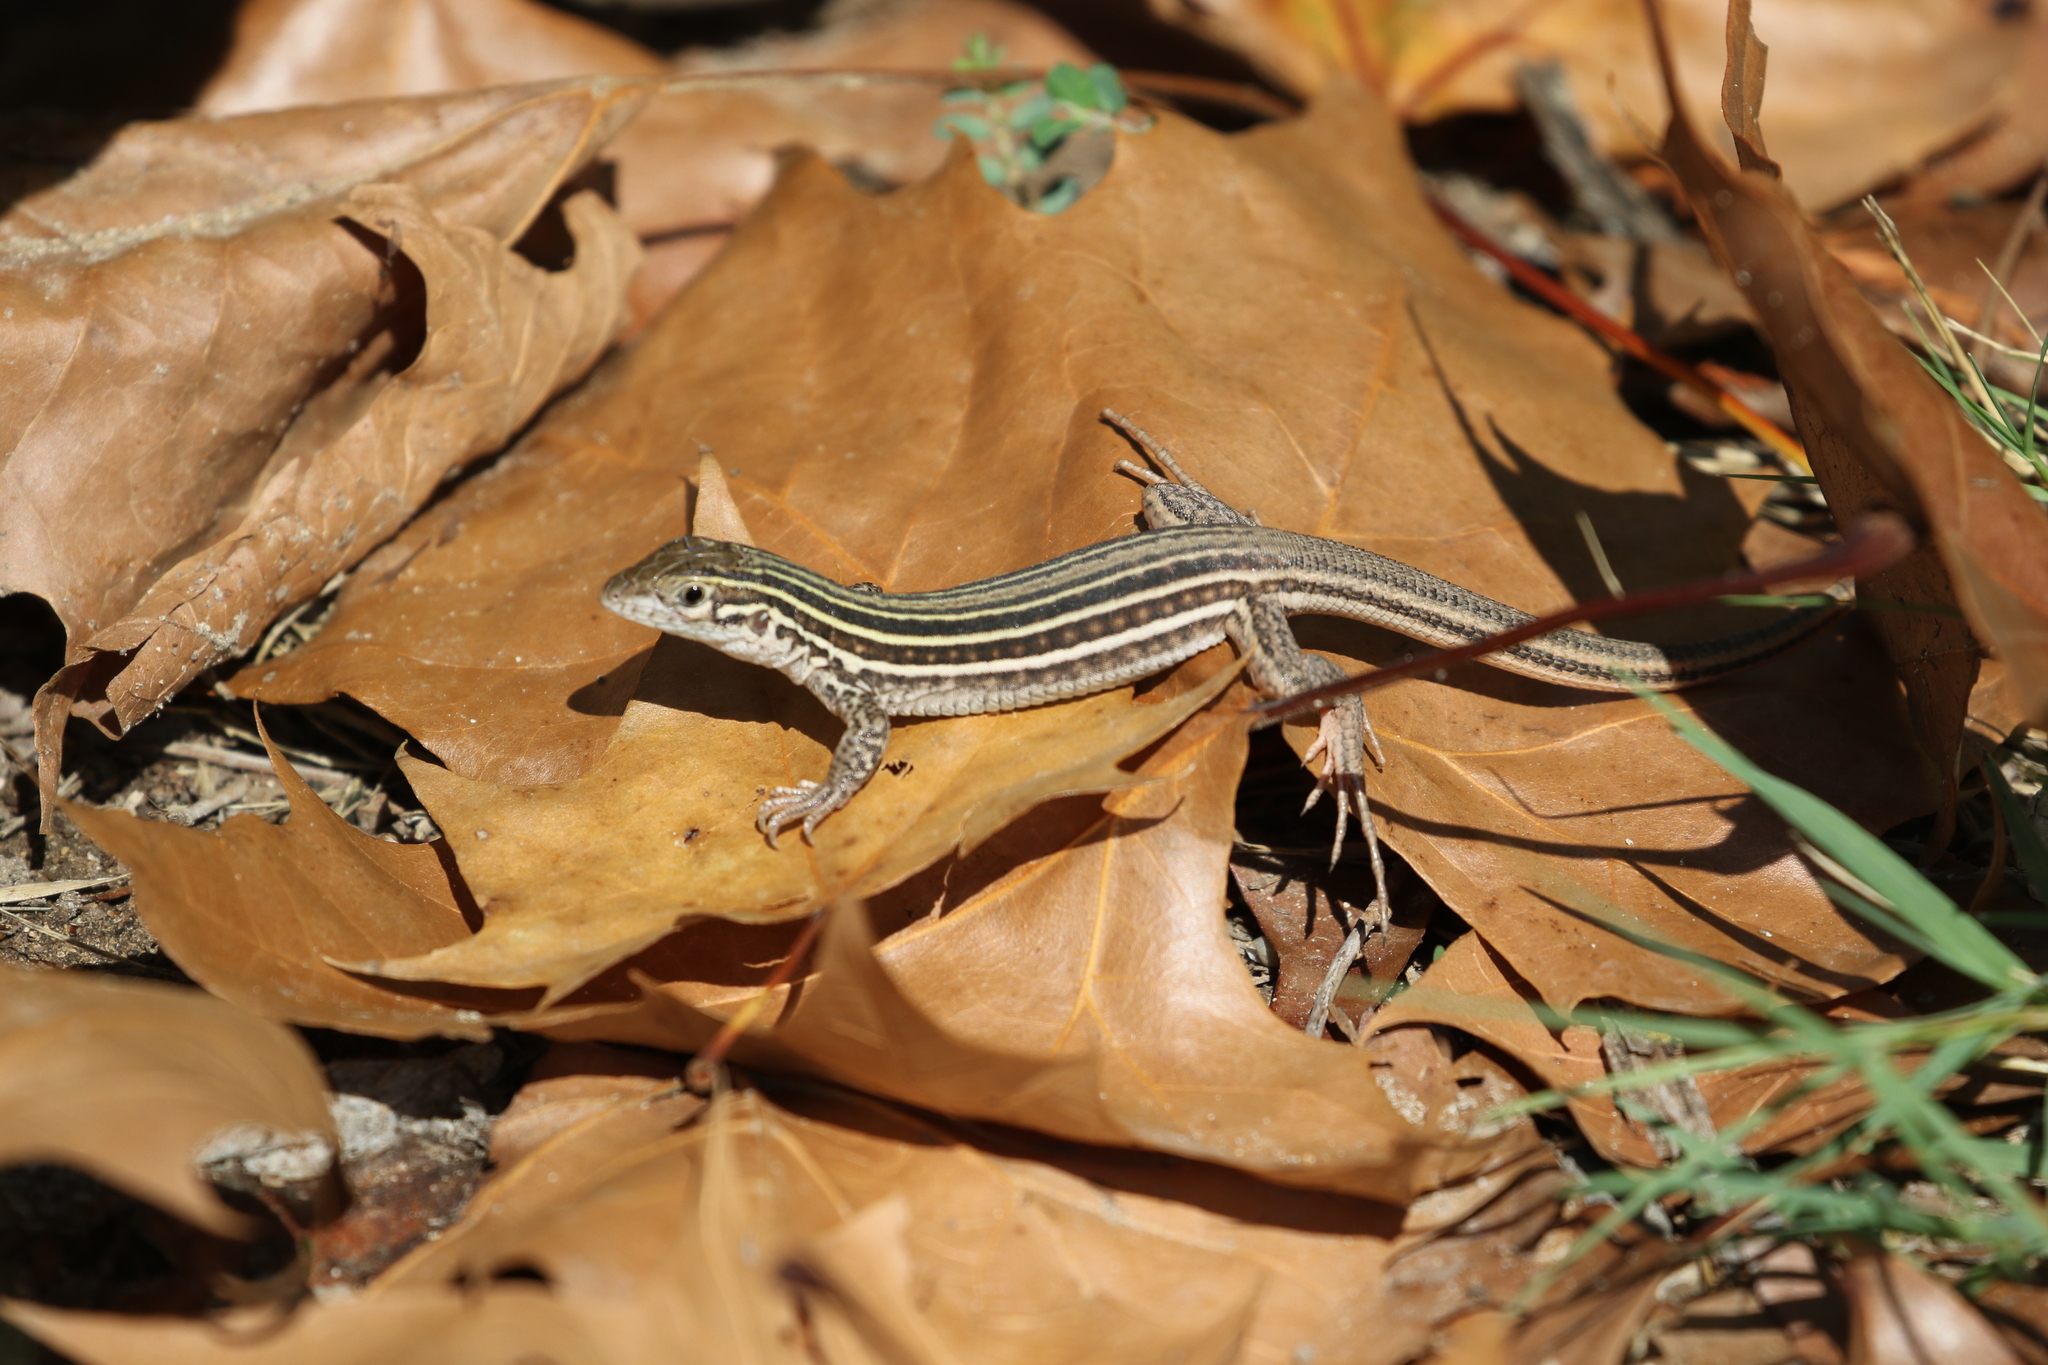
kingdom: Animalia
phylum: Chordata
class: Squamata
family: Teiidae
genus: Aspidoscelis
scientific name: Aspidoscelis gularis
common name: Eastern spotted whiptail
